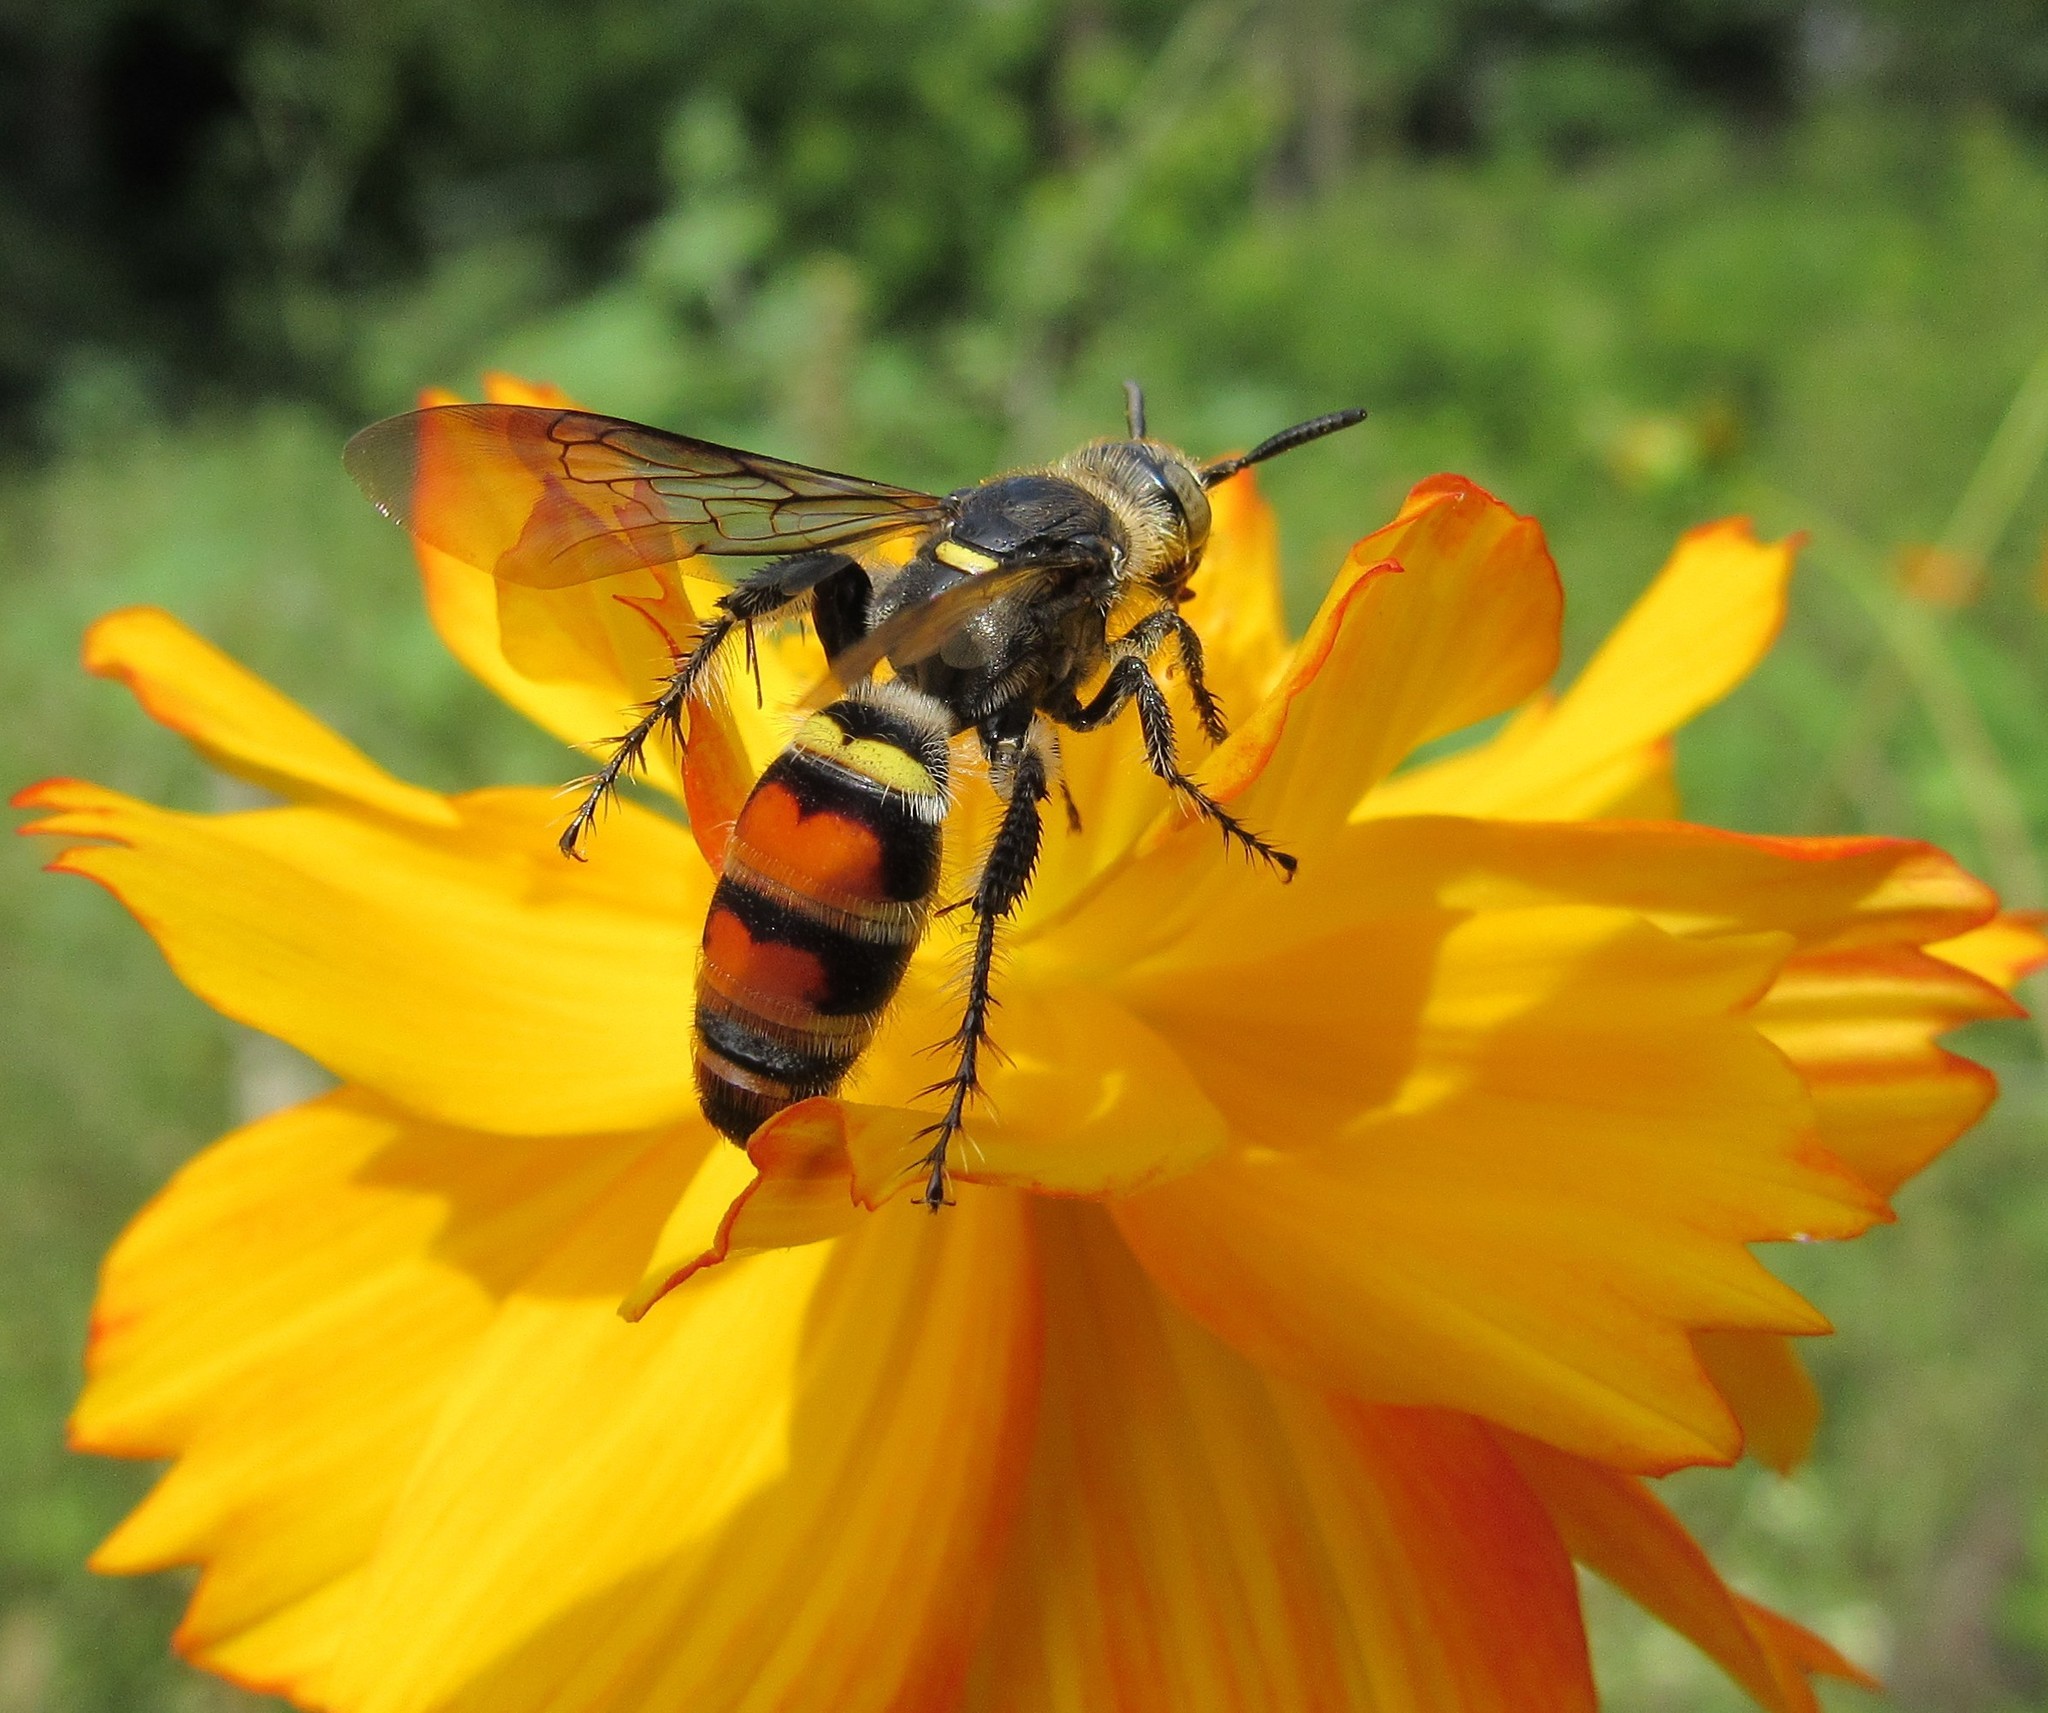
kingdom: Animalia
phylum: Arthropoda
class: Insecta
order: Hymenoptera
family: Scoliidae
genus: Dielis
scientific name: Dielis
